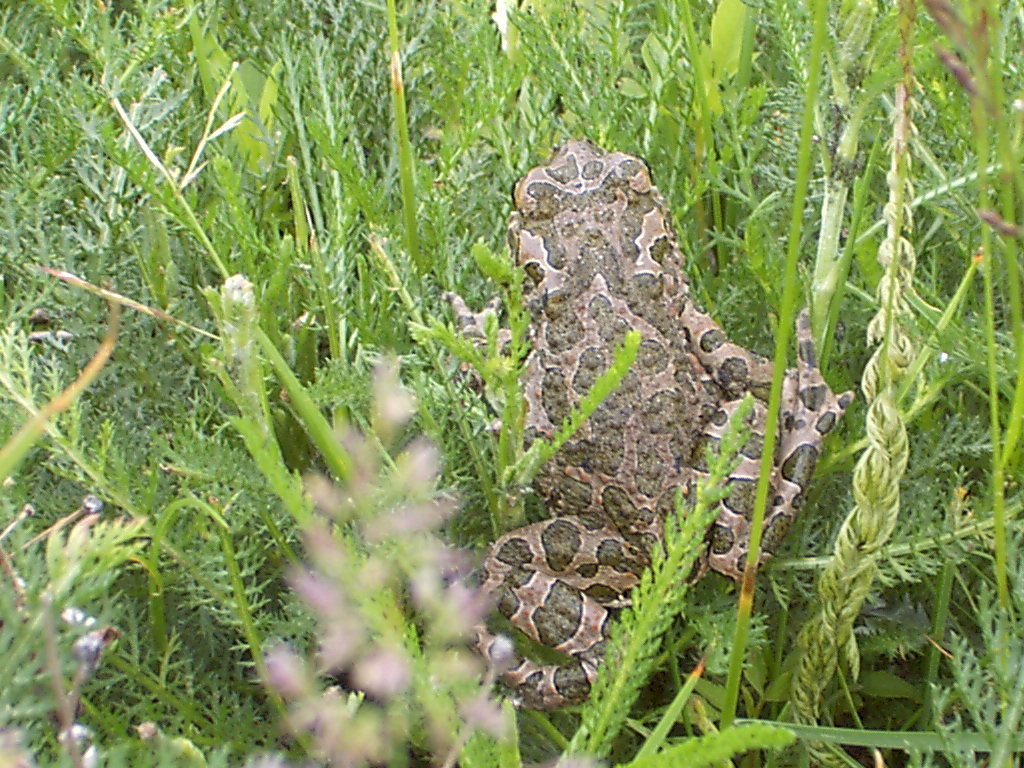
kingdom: Animalia
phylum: Chordata
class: Amphibia
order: Anura
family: Bufonidae
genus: Bufotes
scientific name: Bufotes viridis
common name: European green toad
